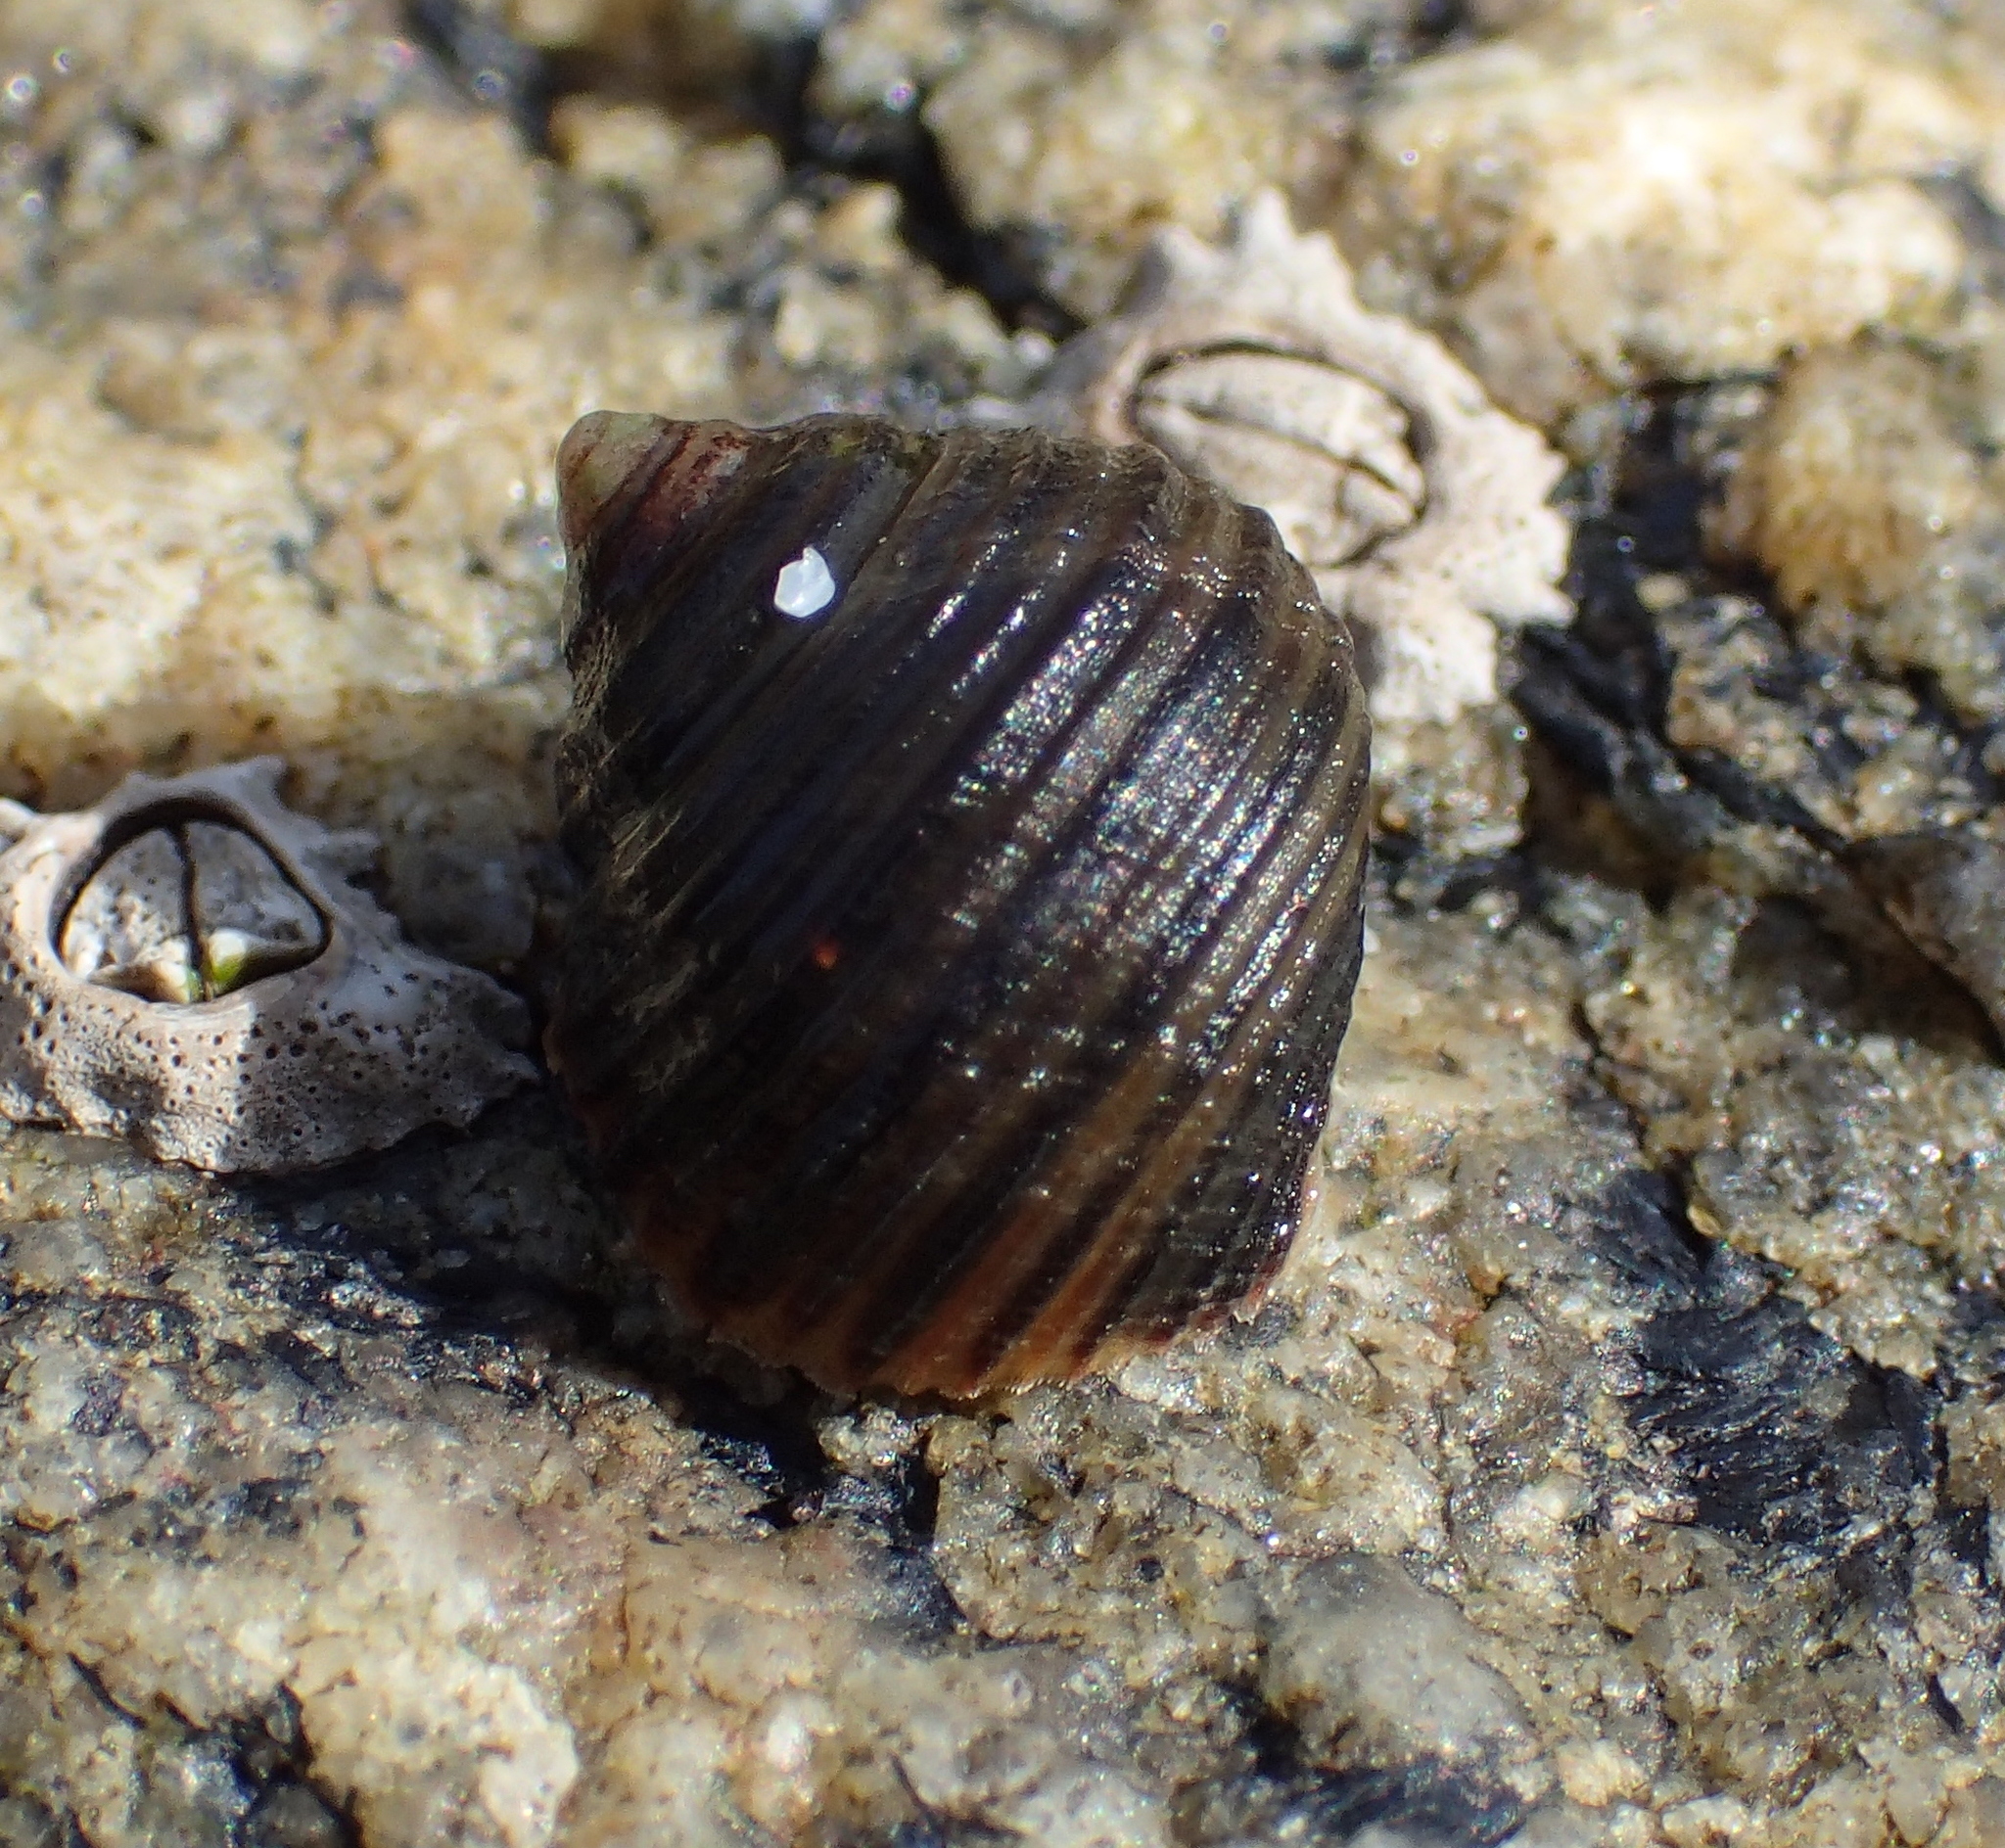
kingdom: Animalia
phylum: Mollusca
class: Gastropoda
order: Littorinimorpha
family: Littorinidae
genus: Littorina
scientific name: Littorina littorea
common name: Common periwinkle
